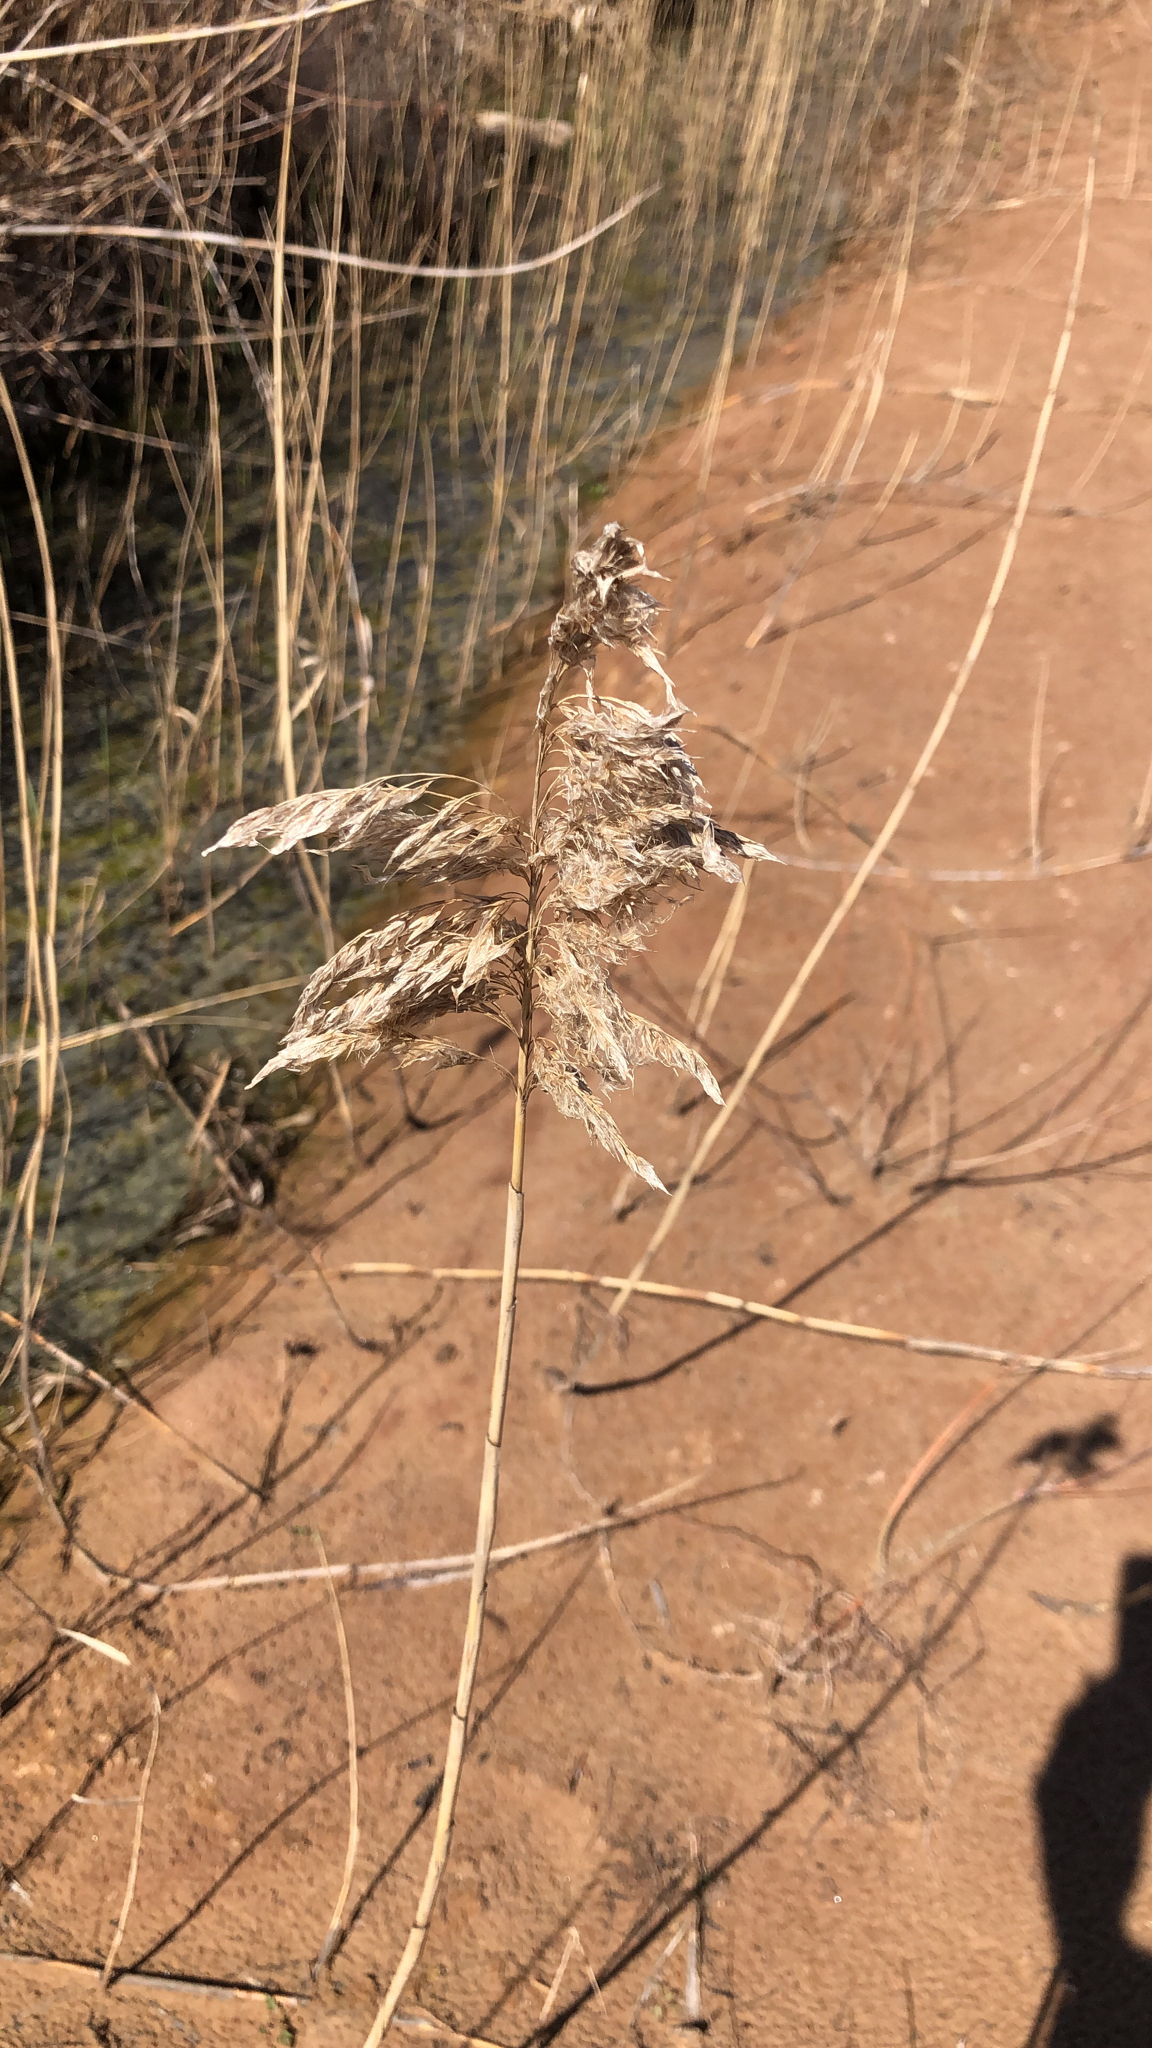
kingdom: Plantae
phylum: Tracheophyta
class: Liliopsida
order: Poales
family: Poaceae
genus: Phragmites
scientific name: Phragmites australis
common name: Common reed
